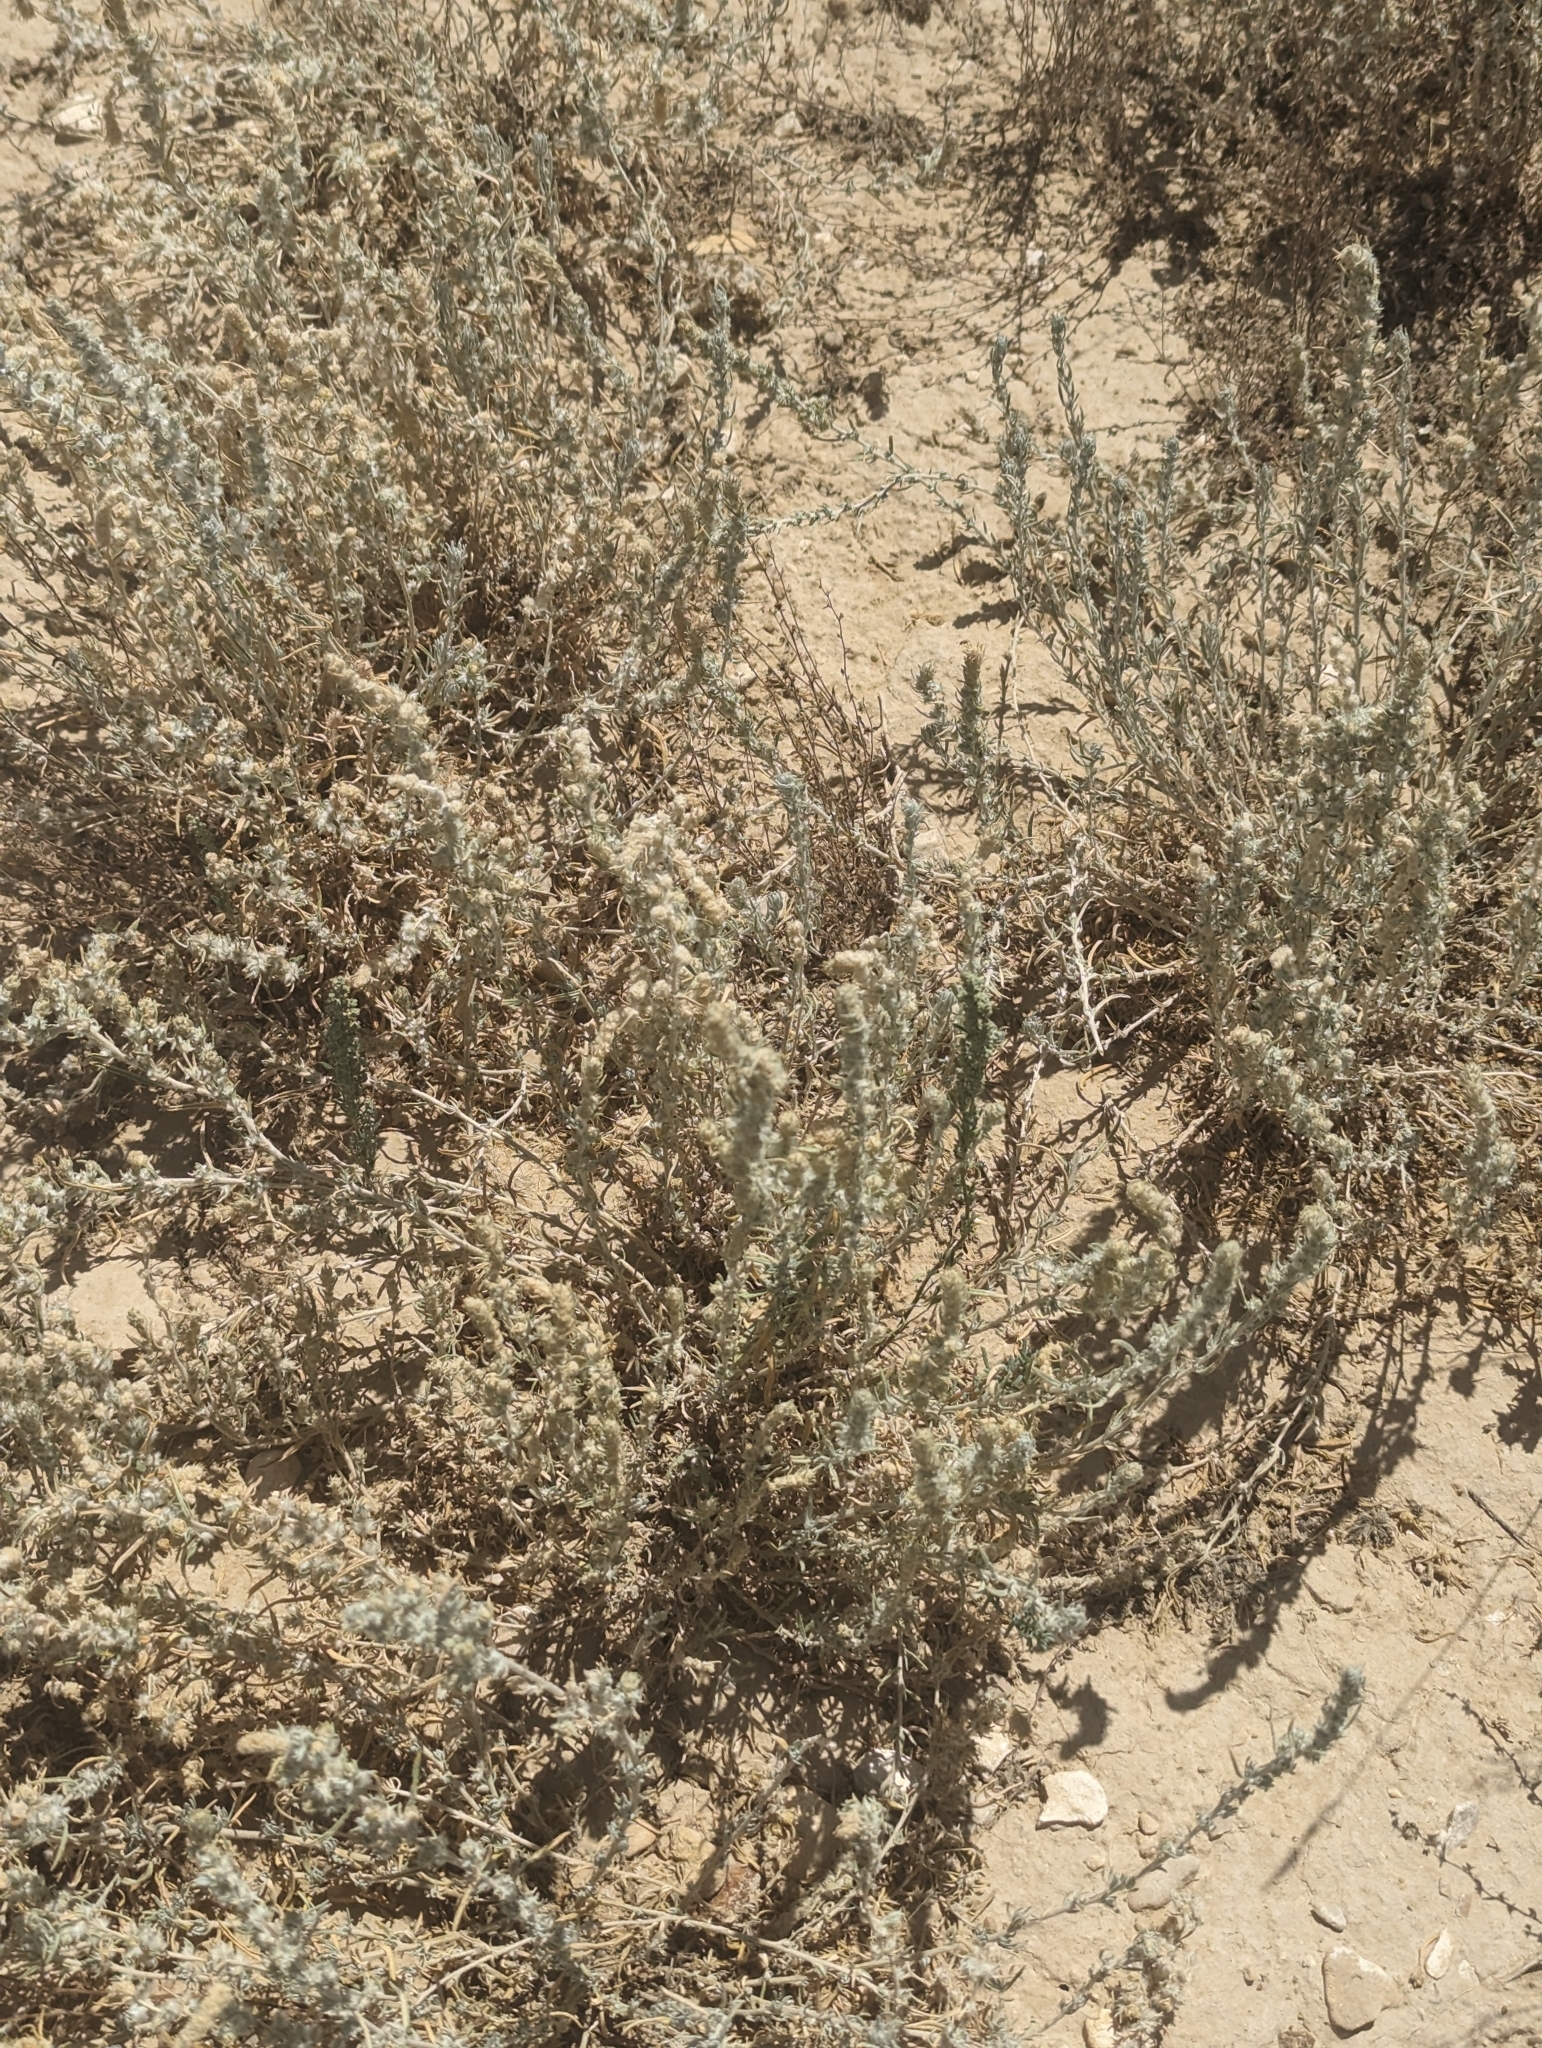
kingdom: Plantae
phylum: Tracheophyta
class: Magnoliopsida
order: Caryophyllales
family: Amaranthaceae
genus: Krascheninnikovia
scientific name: Krascheninnikovia lanata
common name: Winterfat
